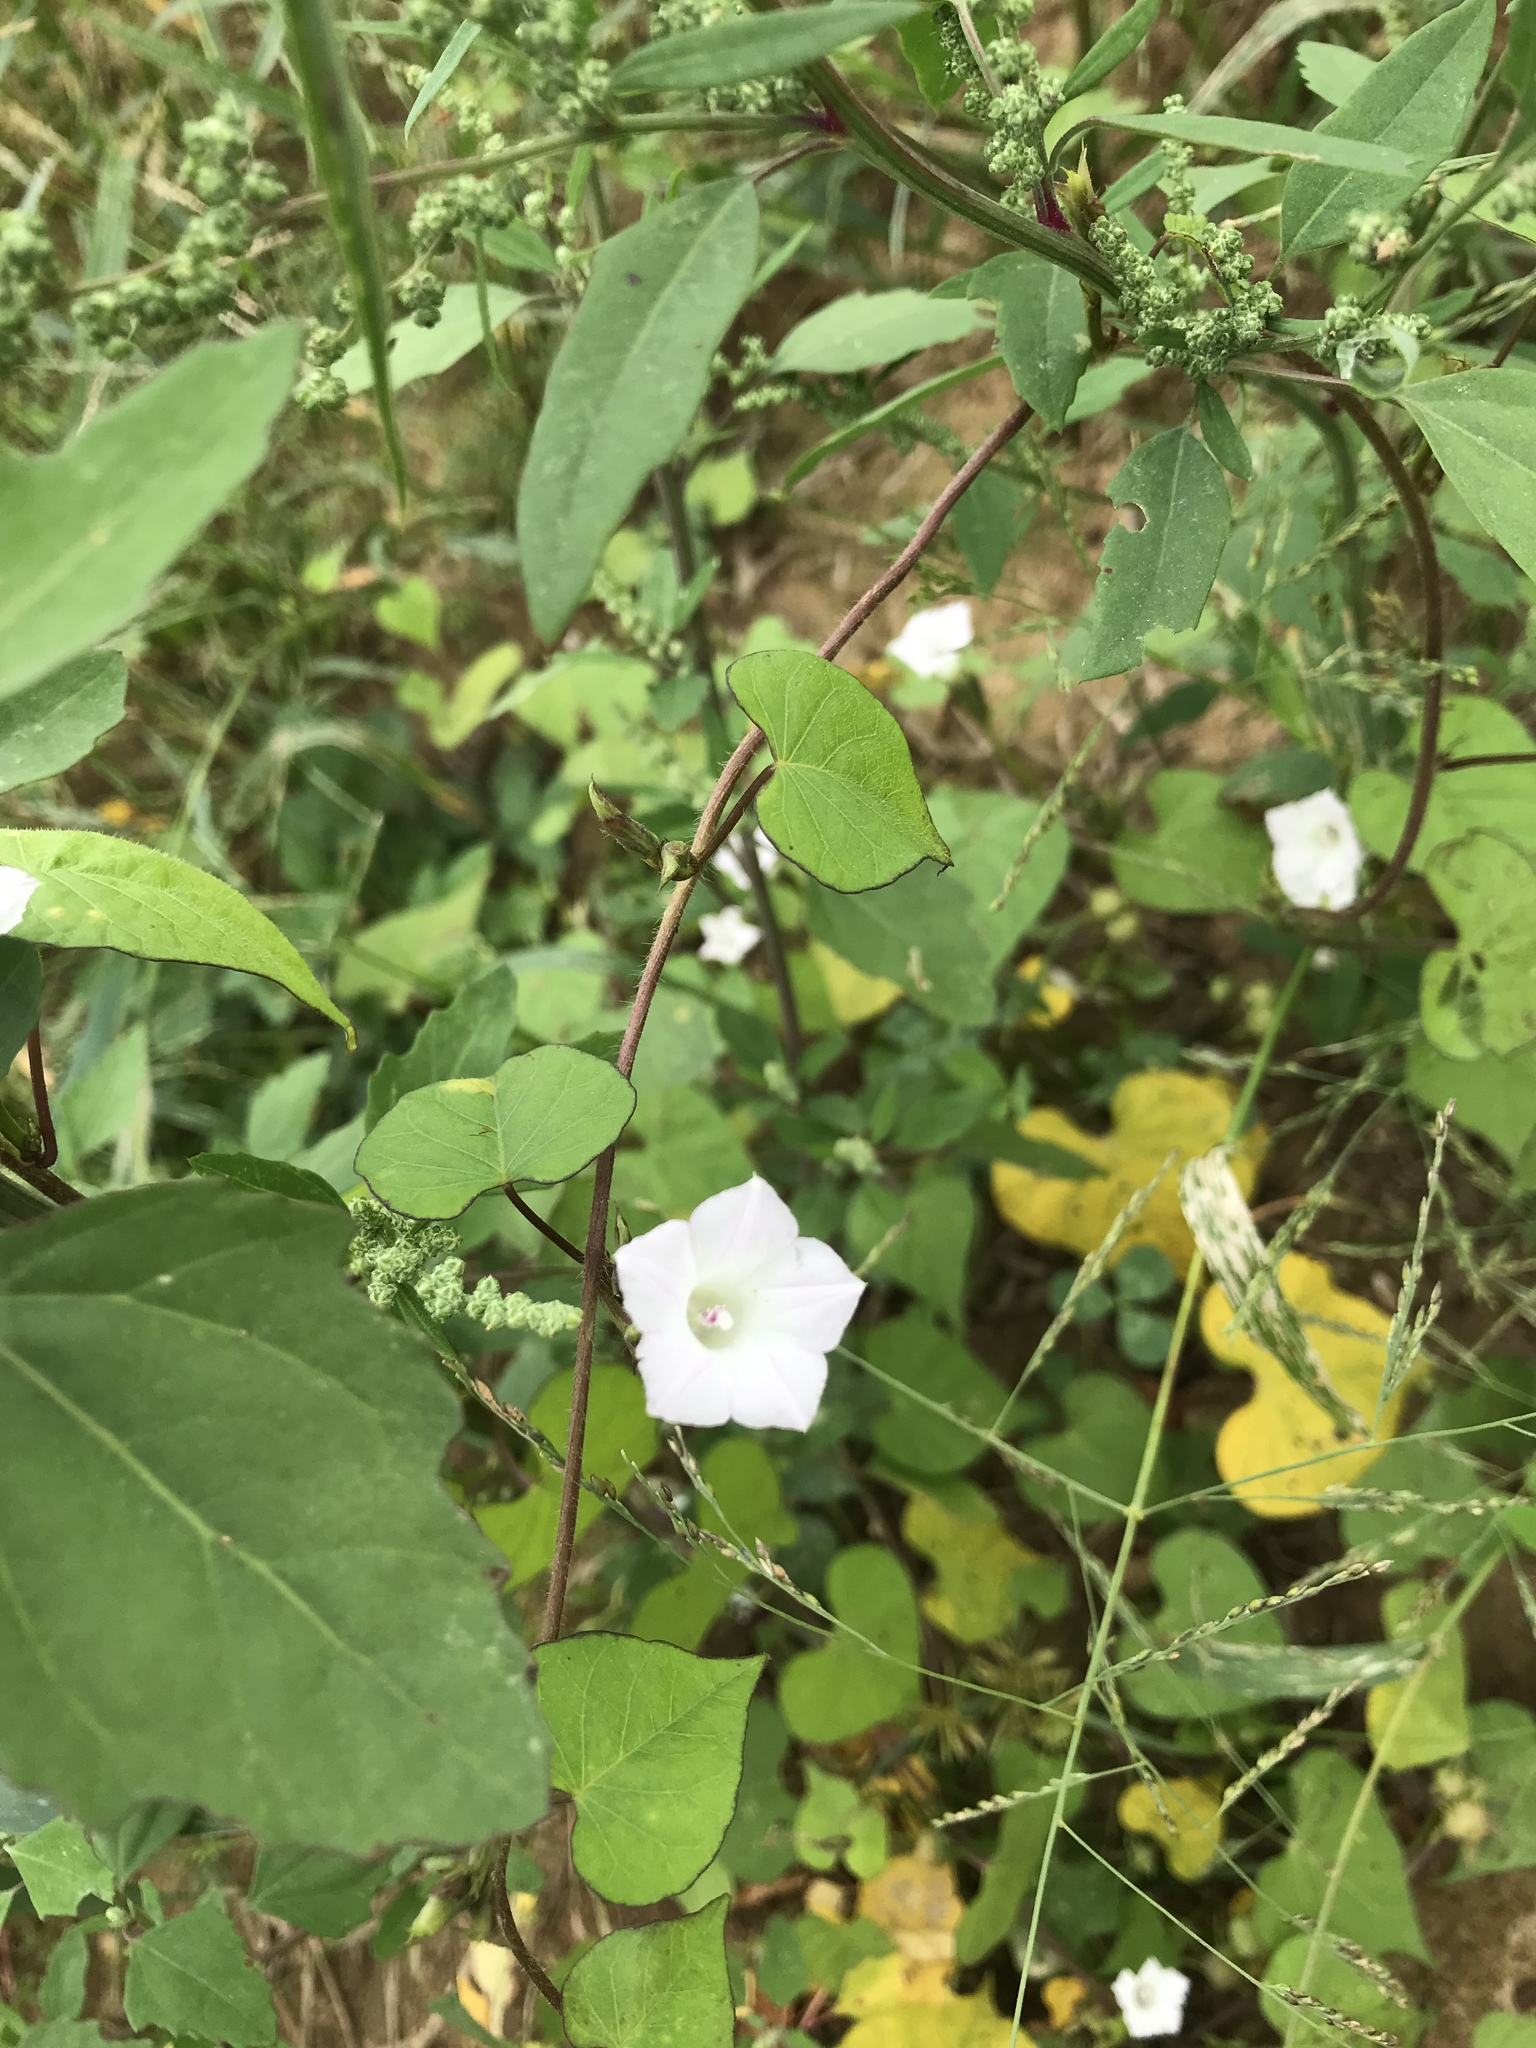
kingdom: Plantae
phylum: Tracheophyta
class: Magnoliopsida
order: Solanales
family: Convolvulaceae
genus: Ipomoea
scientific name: Ipomoea lacunosa
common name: White morning-glory
